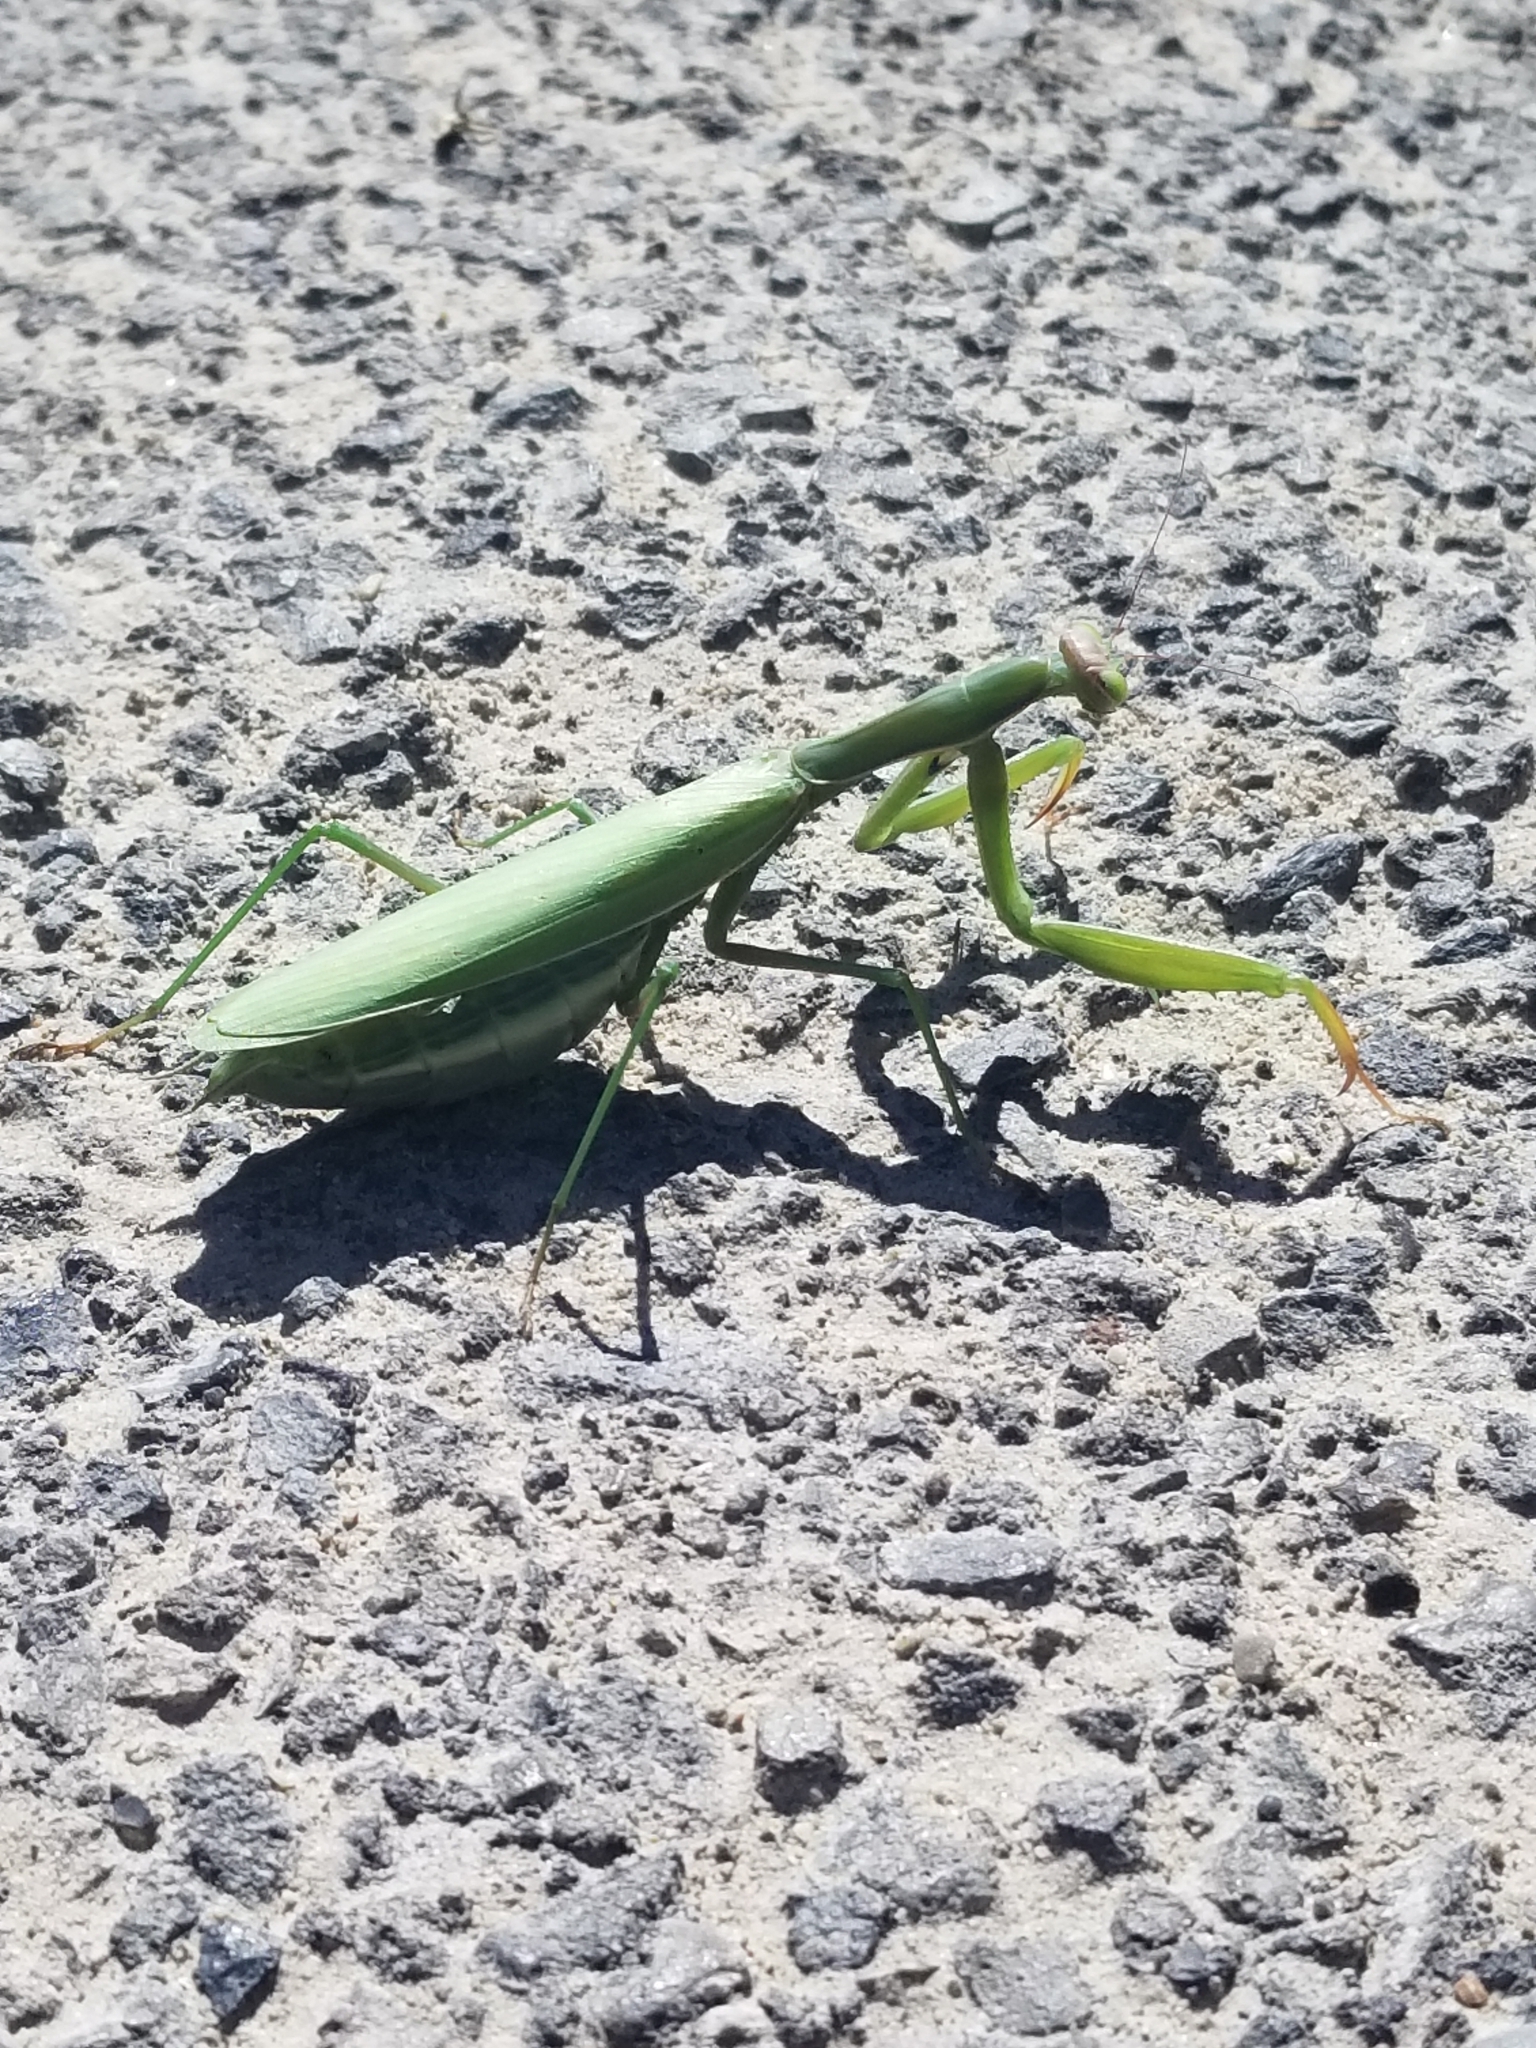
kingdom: Animalia
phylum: Arthropoda
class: Insecta
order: Mantodea
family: Mantidae
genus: Mantis
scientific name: Mantis religiosa
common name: Praying mantis
